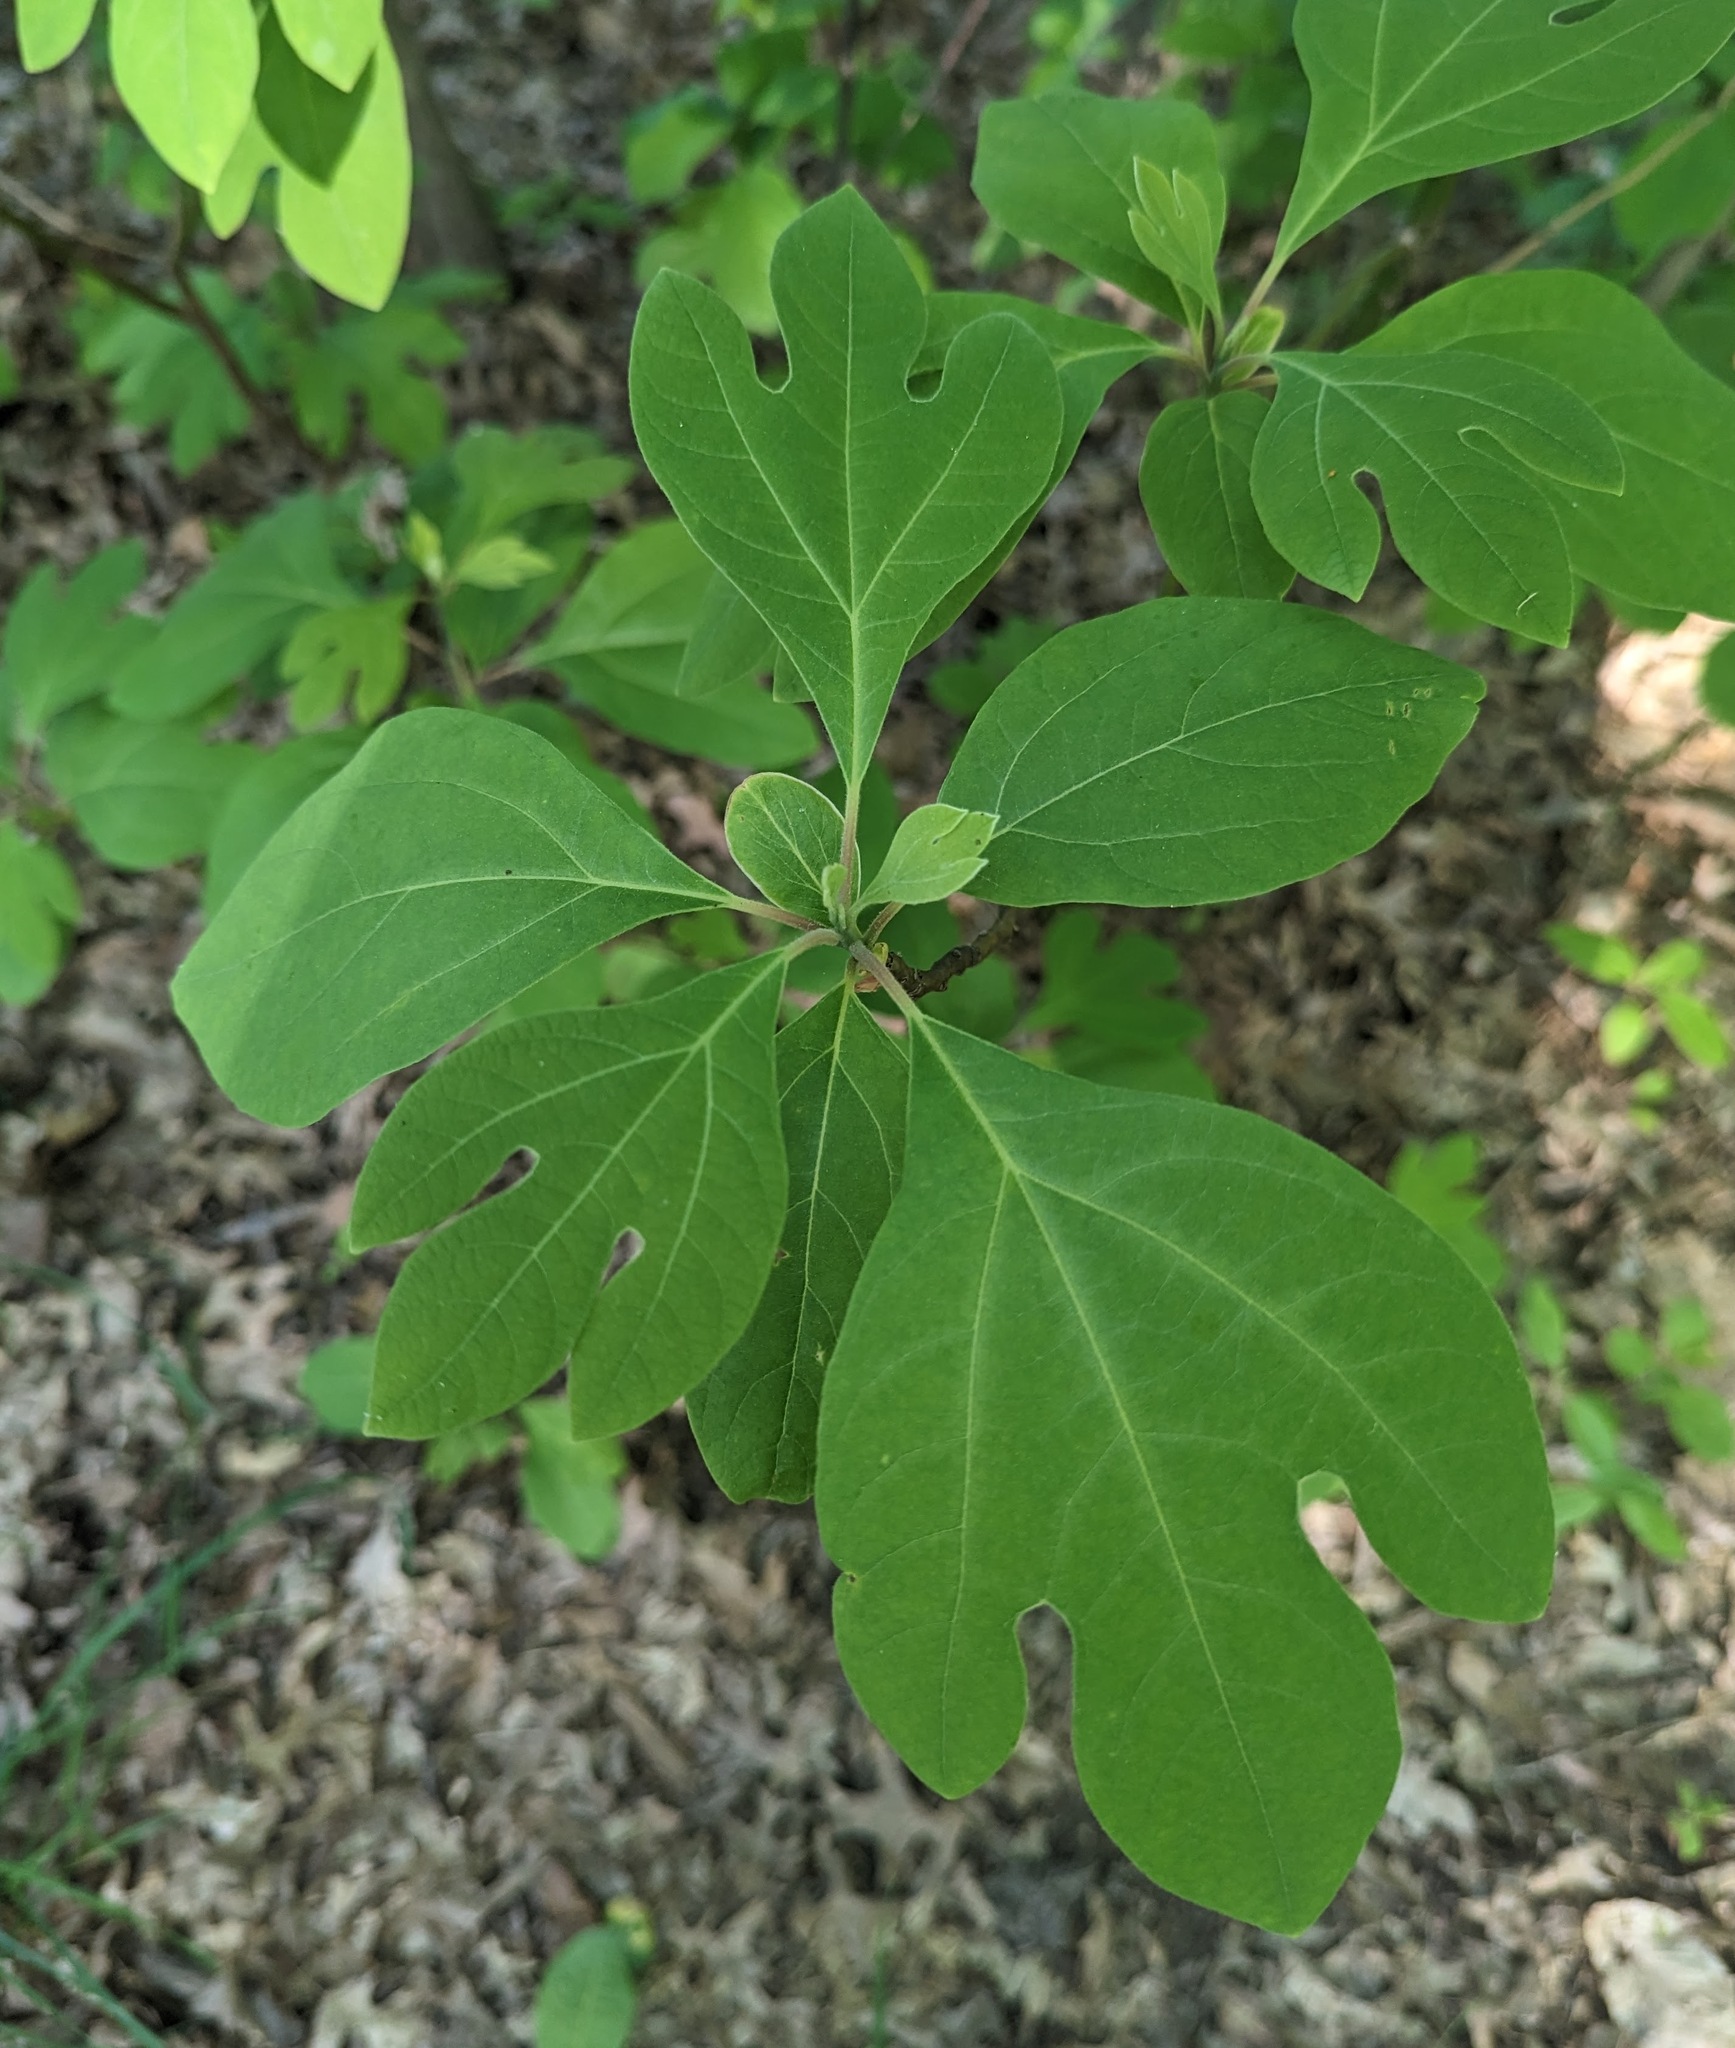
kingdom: Plantae
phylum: Tracheophyta
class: Magnoliopsida
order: Laurales
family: Lauraceae
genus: Sassafras
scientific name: Sassafras albidum
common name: Sassafras
